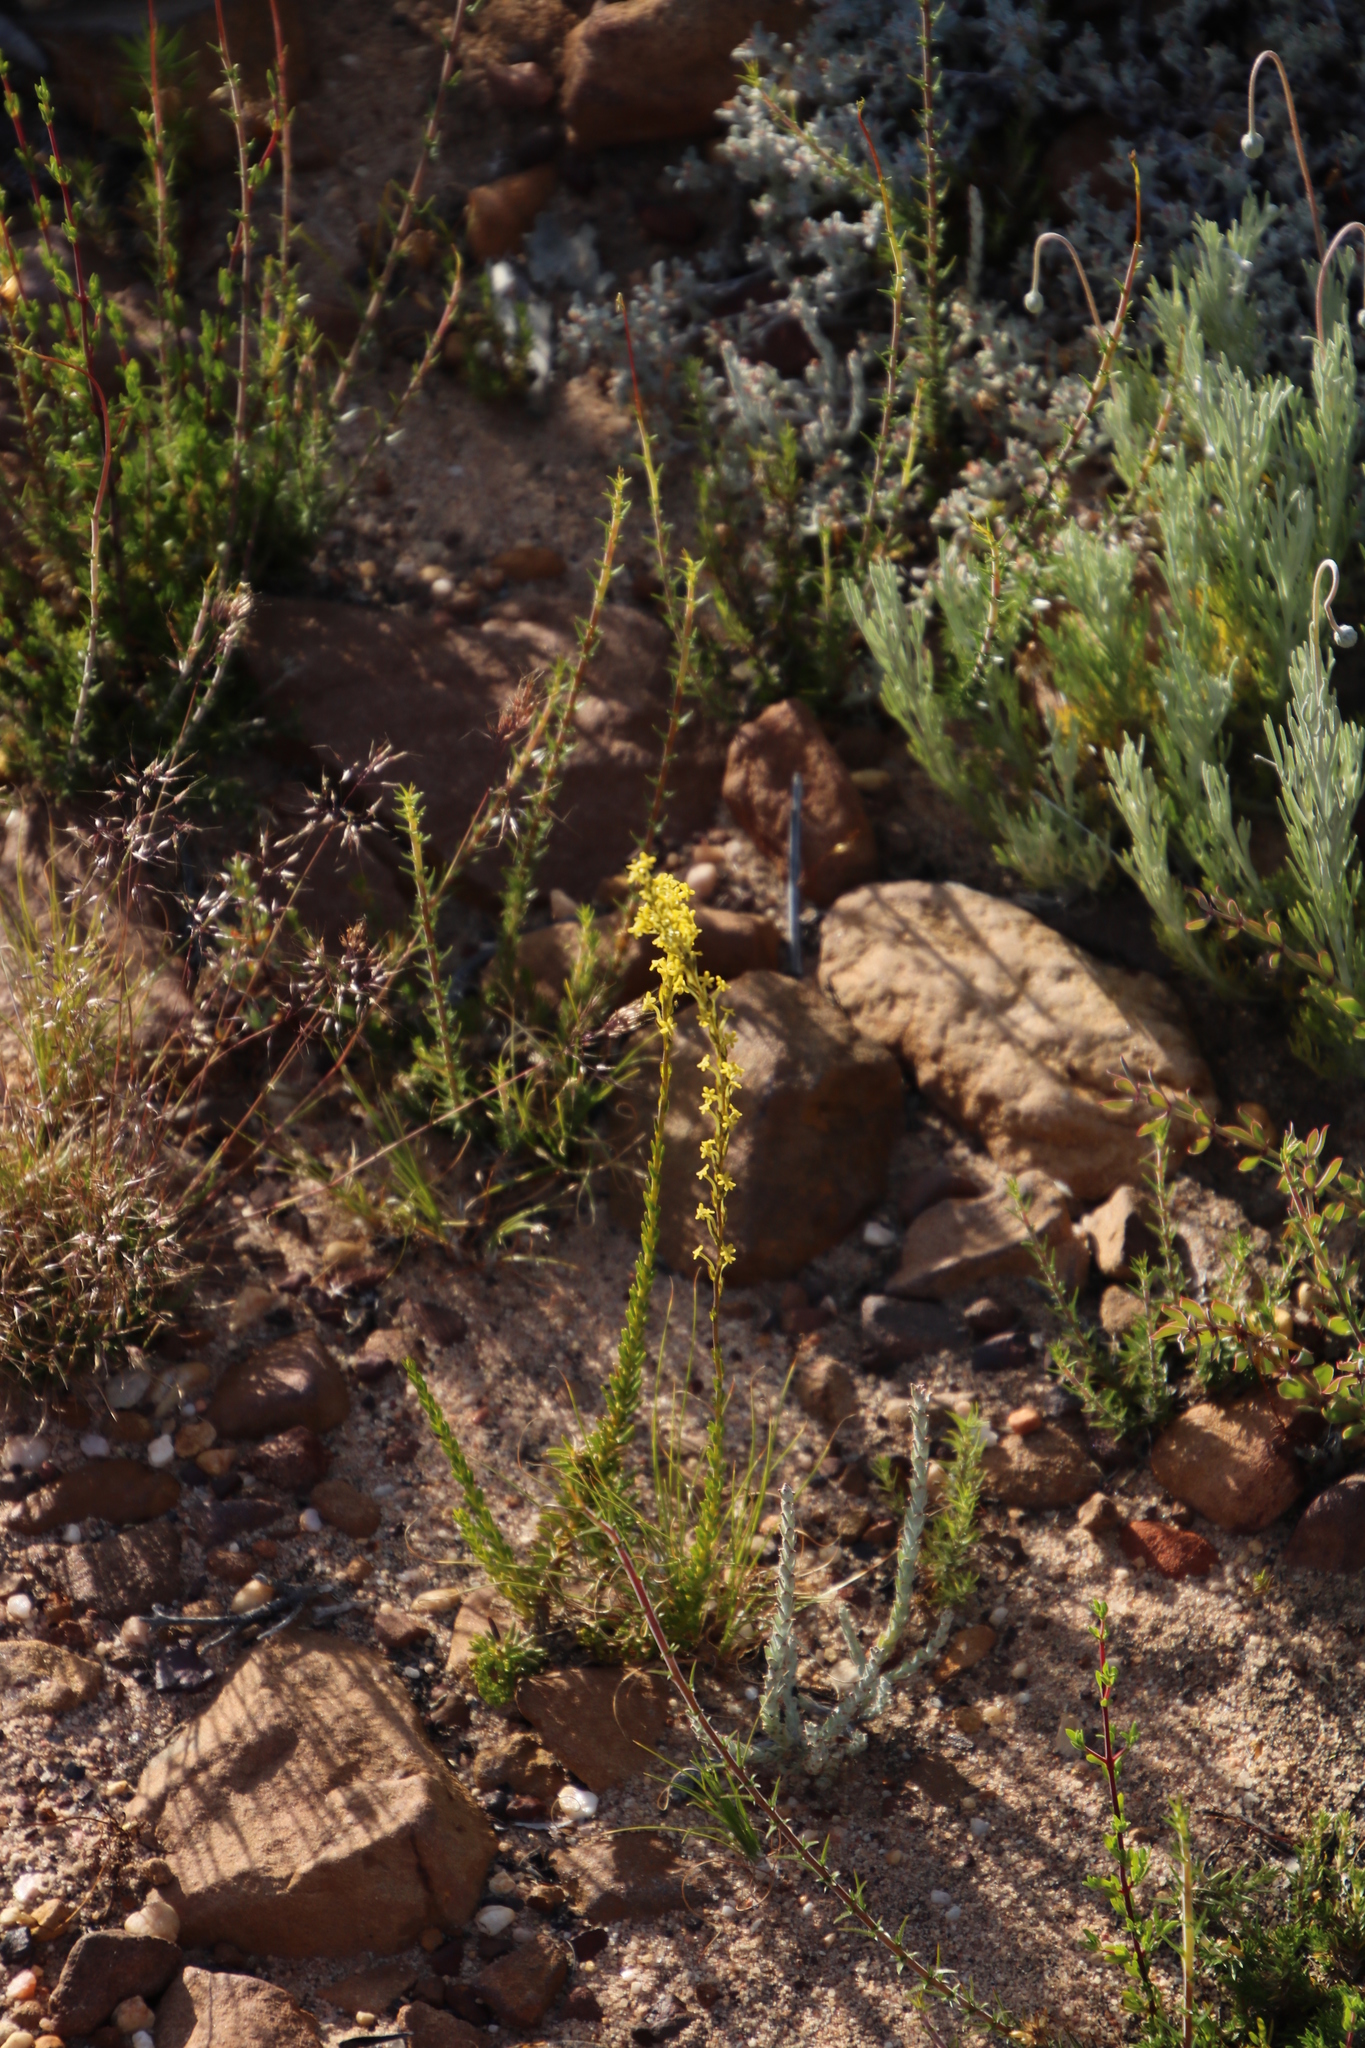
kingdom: Plantae
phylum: Tracheophyta
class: Magnoliopsida
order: Lamiales
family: Scrophulariaceae
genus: Microdon
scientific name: Microdon dubius
